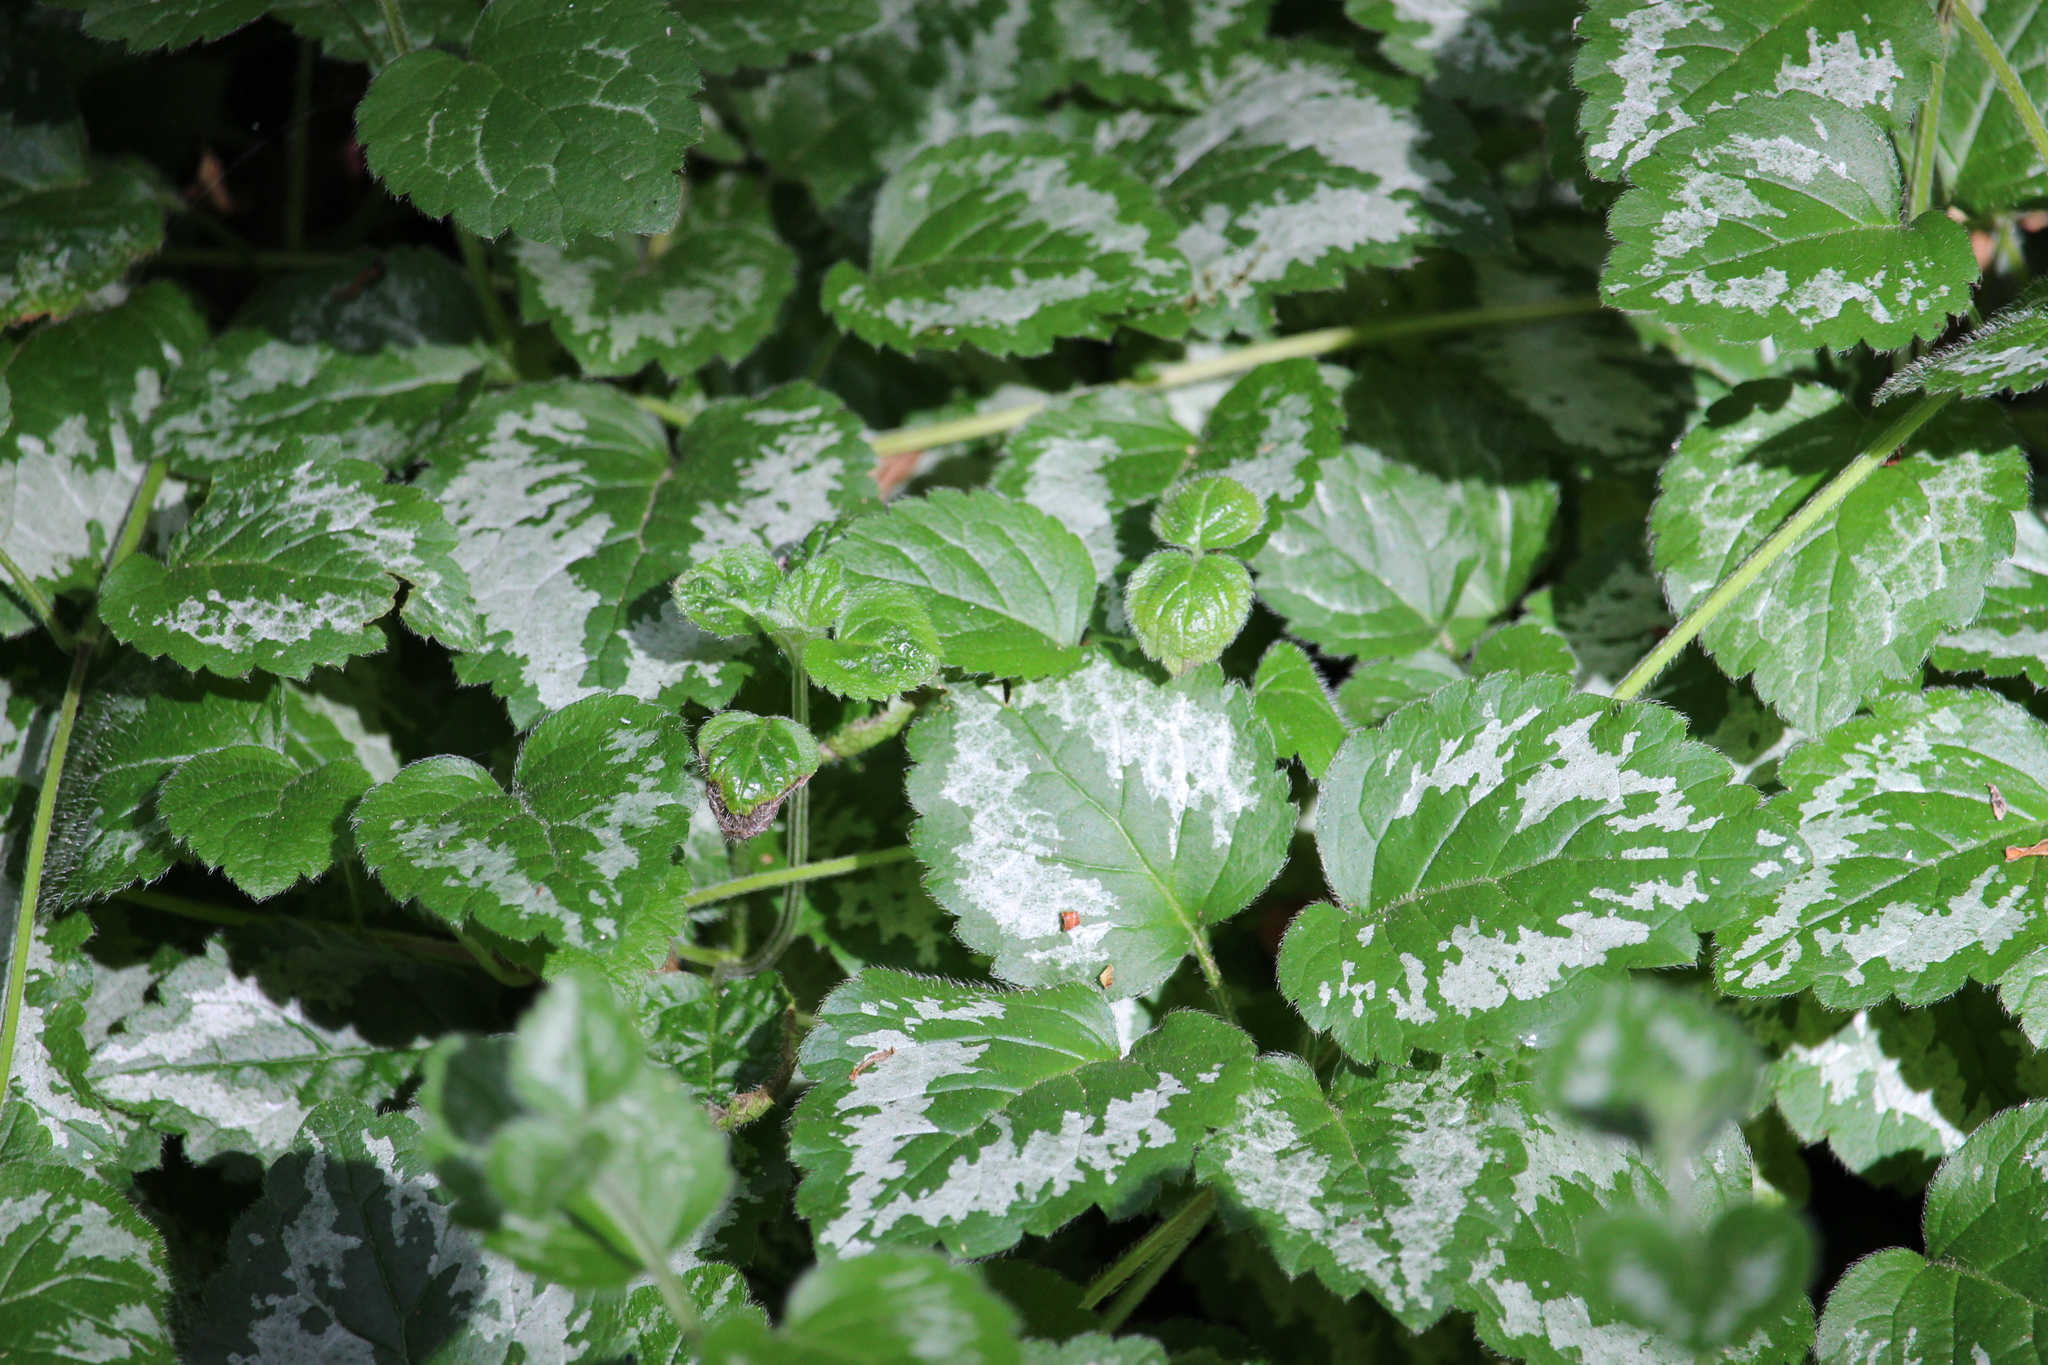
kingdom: Plantae
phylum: Tracheophyta
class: Magnoliopsida
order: Lamiales
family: Lamiaceae
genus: Lamium
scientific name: Lamium galeobdolon
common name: Yellow archangel
